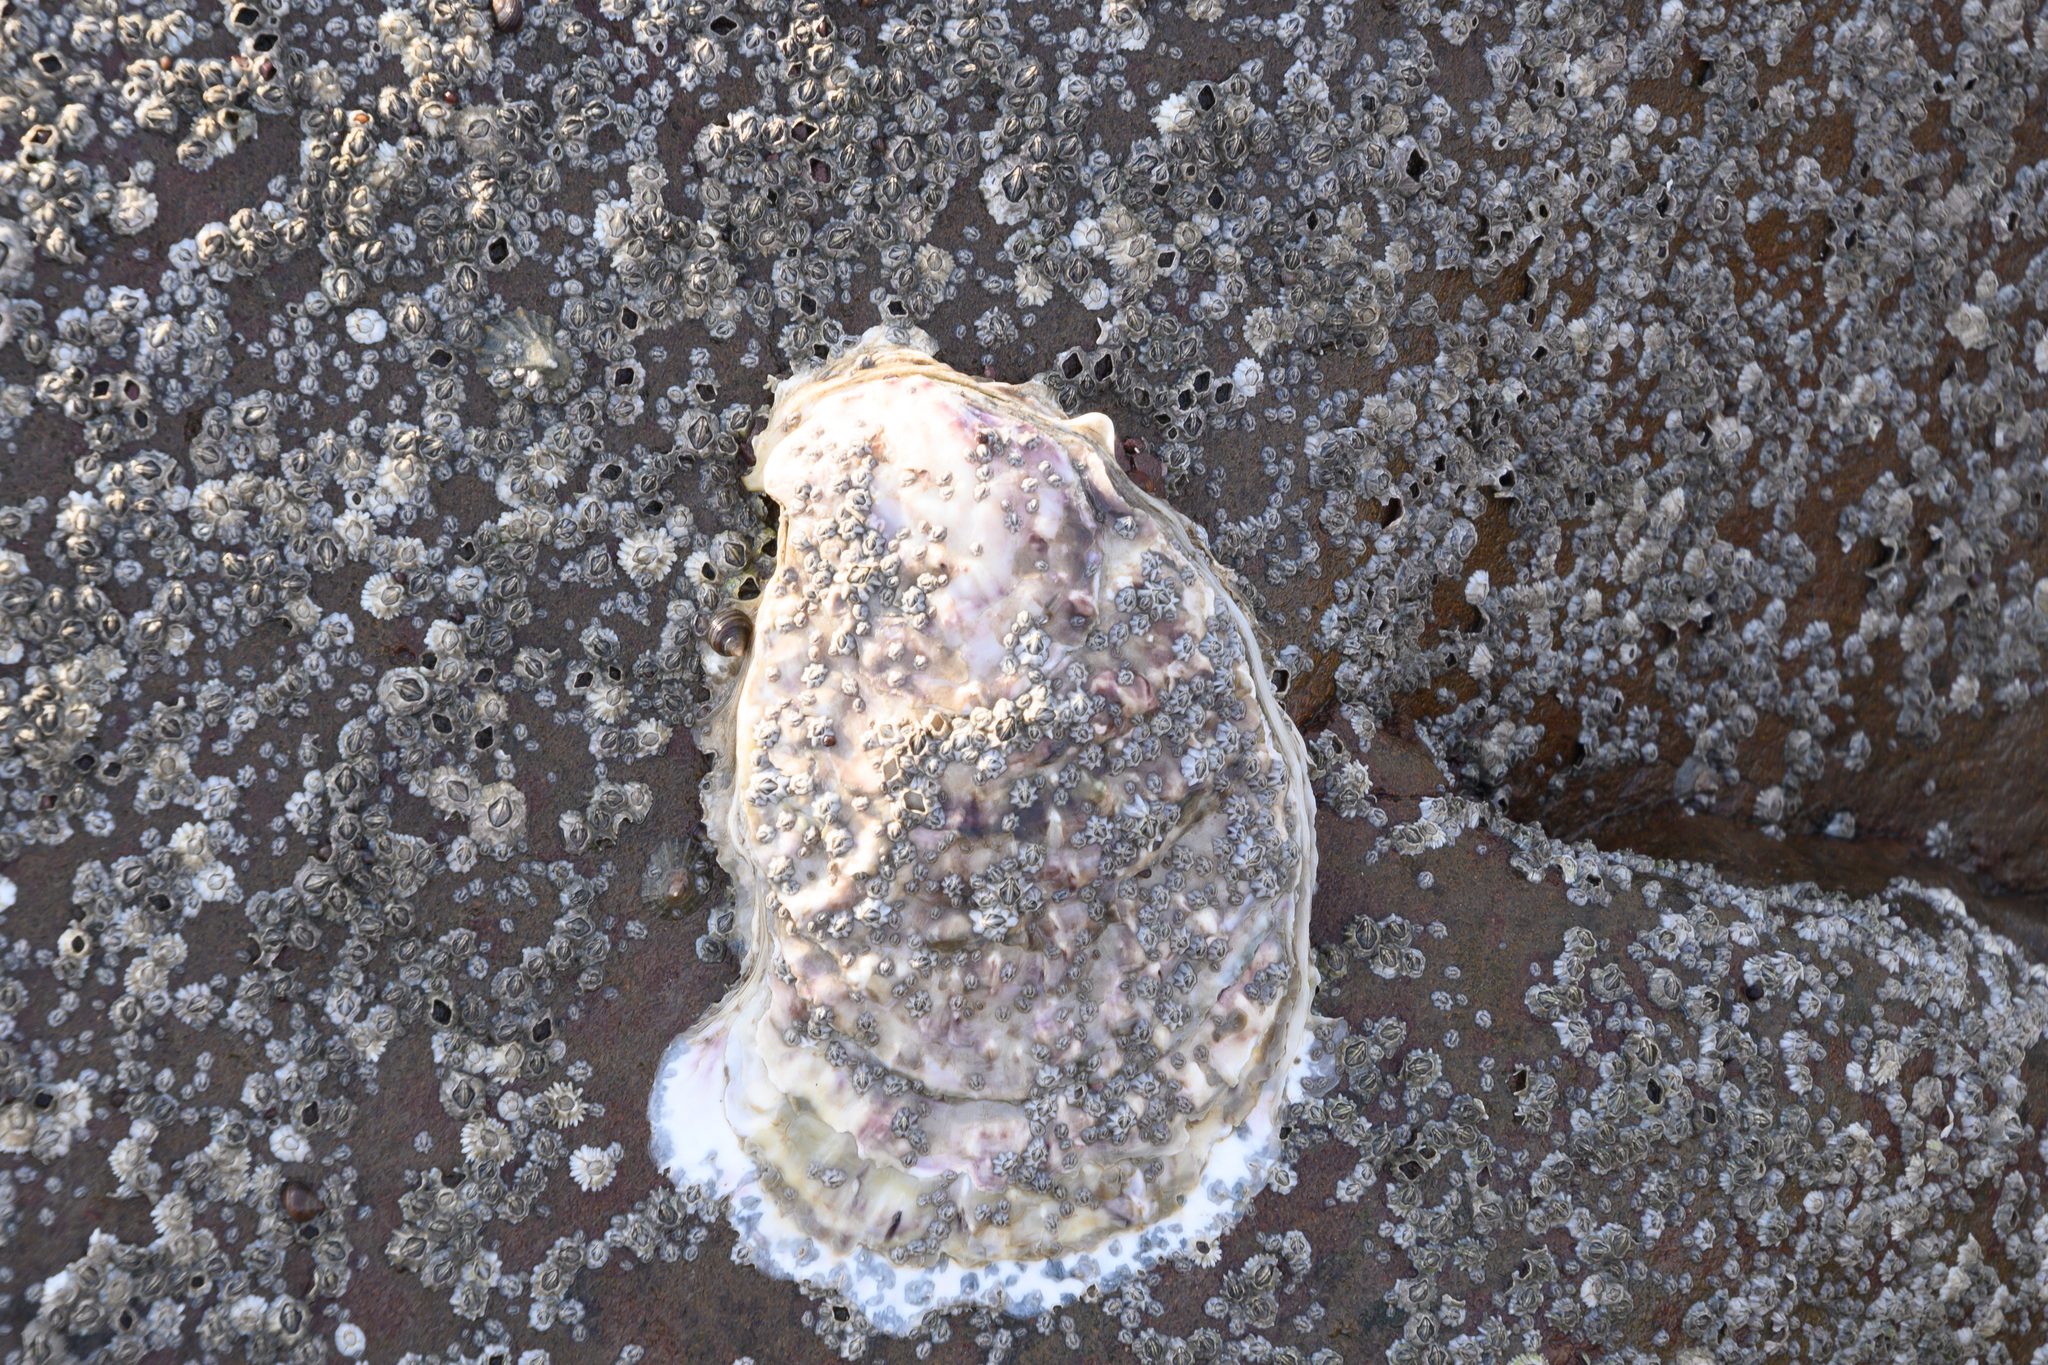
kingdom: Animalia
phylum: Mollusca
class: Bivalvia
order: Ostreida
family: Ostreidae
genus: Magallana
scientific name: Magallana gigas
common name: Pacific oyster
